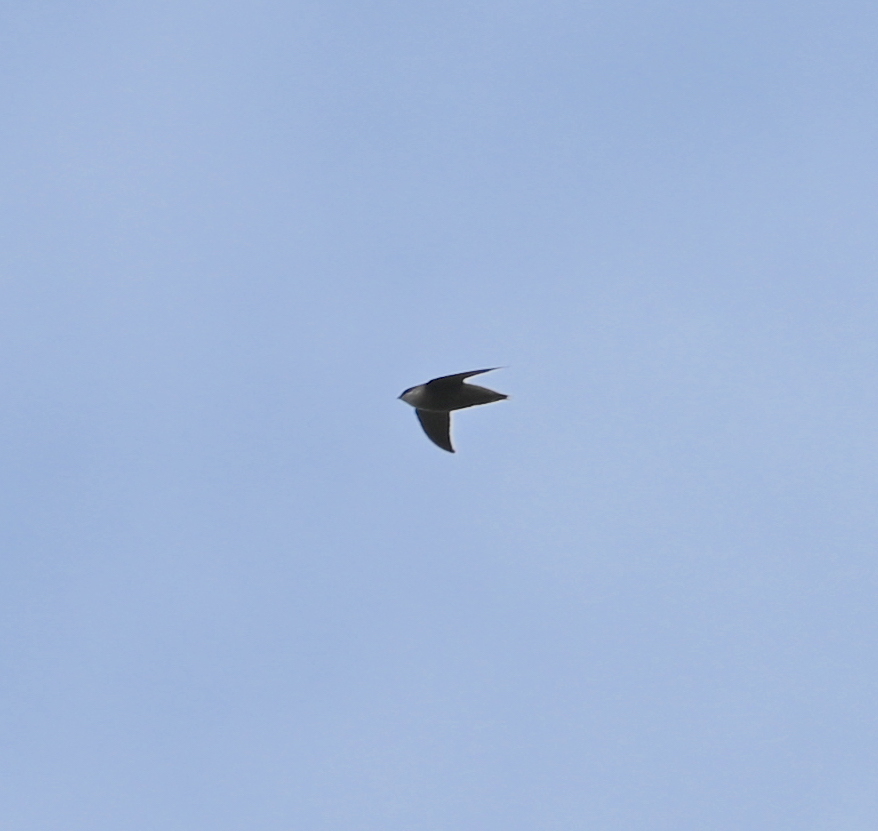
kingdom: Animalia
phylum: Chordata
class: Aves
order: Apodiformes
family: Apodidae
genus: Chaetura
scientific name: Chaetura pelagica
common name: Chimney swift
